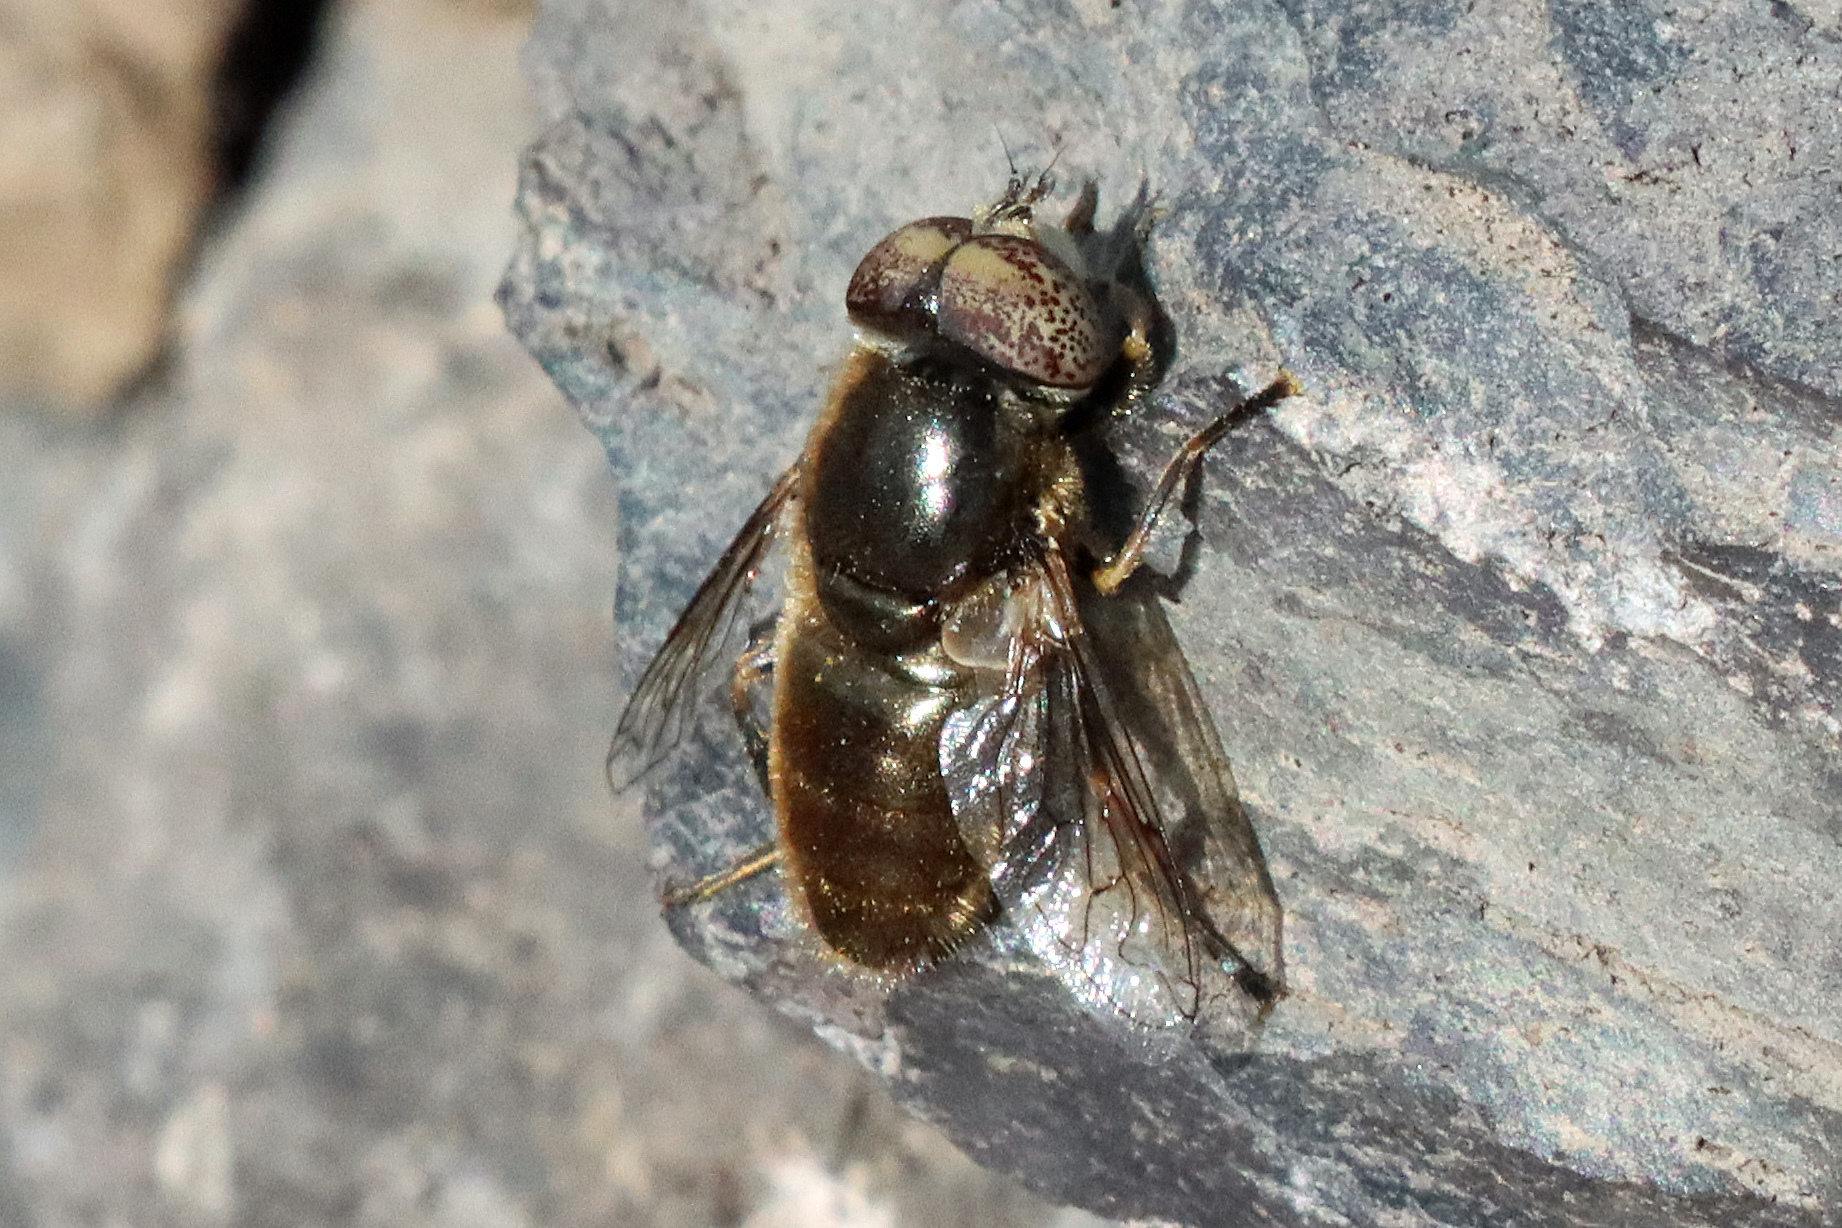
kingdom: Animalia
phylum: Arthropoda
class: Insecta
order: Diptera
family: Syrphidae
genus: Eristalinus
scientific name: Eristalinus aeneus
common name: Syrphid fly
